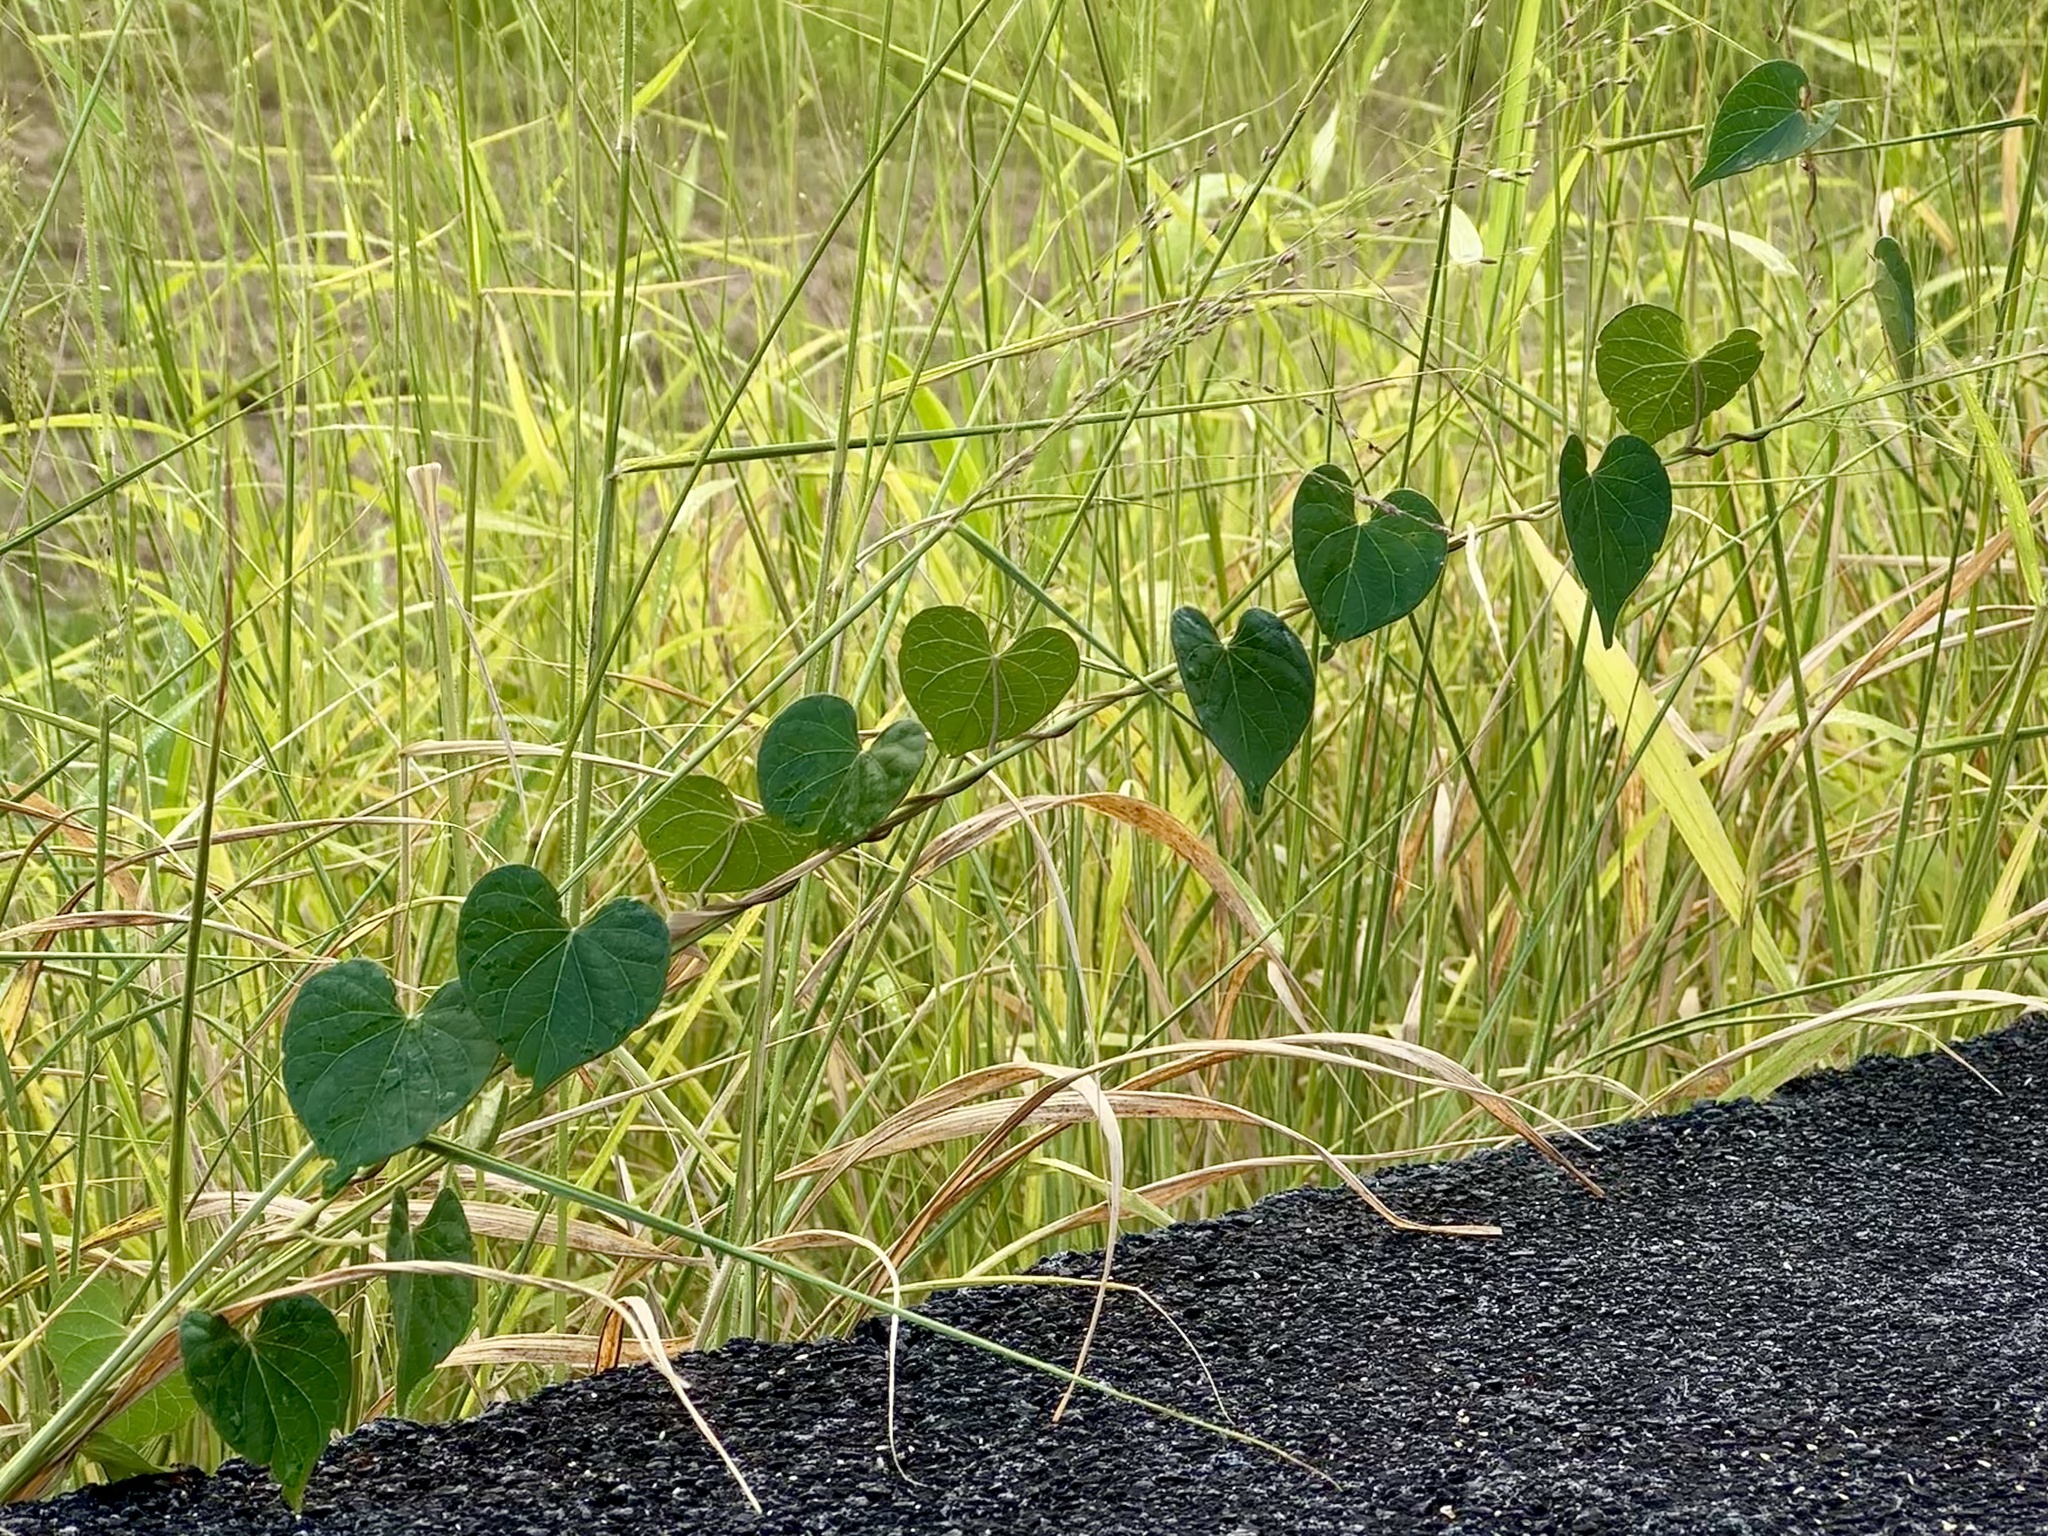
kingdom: Plantae
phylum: Tracheophyta
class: Magnoliopsida
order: Solanales
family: Convolvulaceae
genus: Ipomoea
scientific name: Ipomoea obscura
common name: Obscure morning-glory
